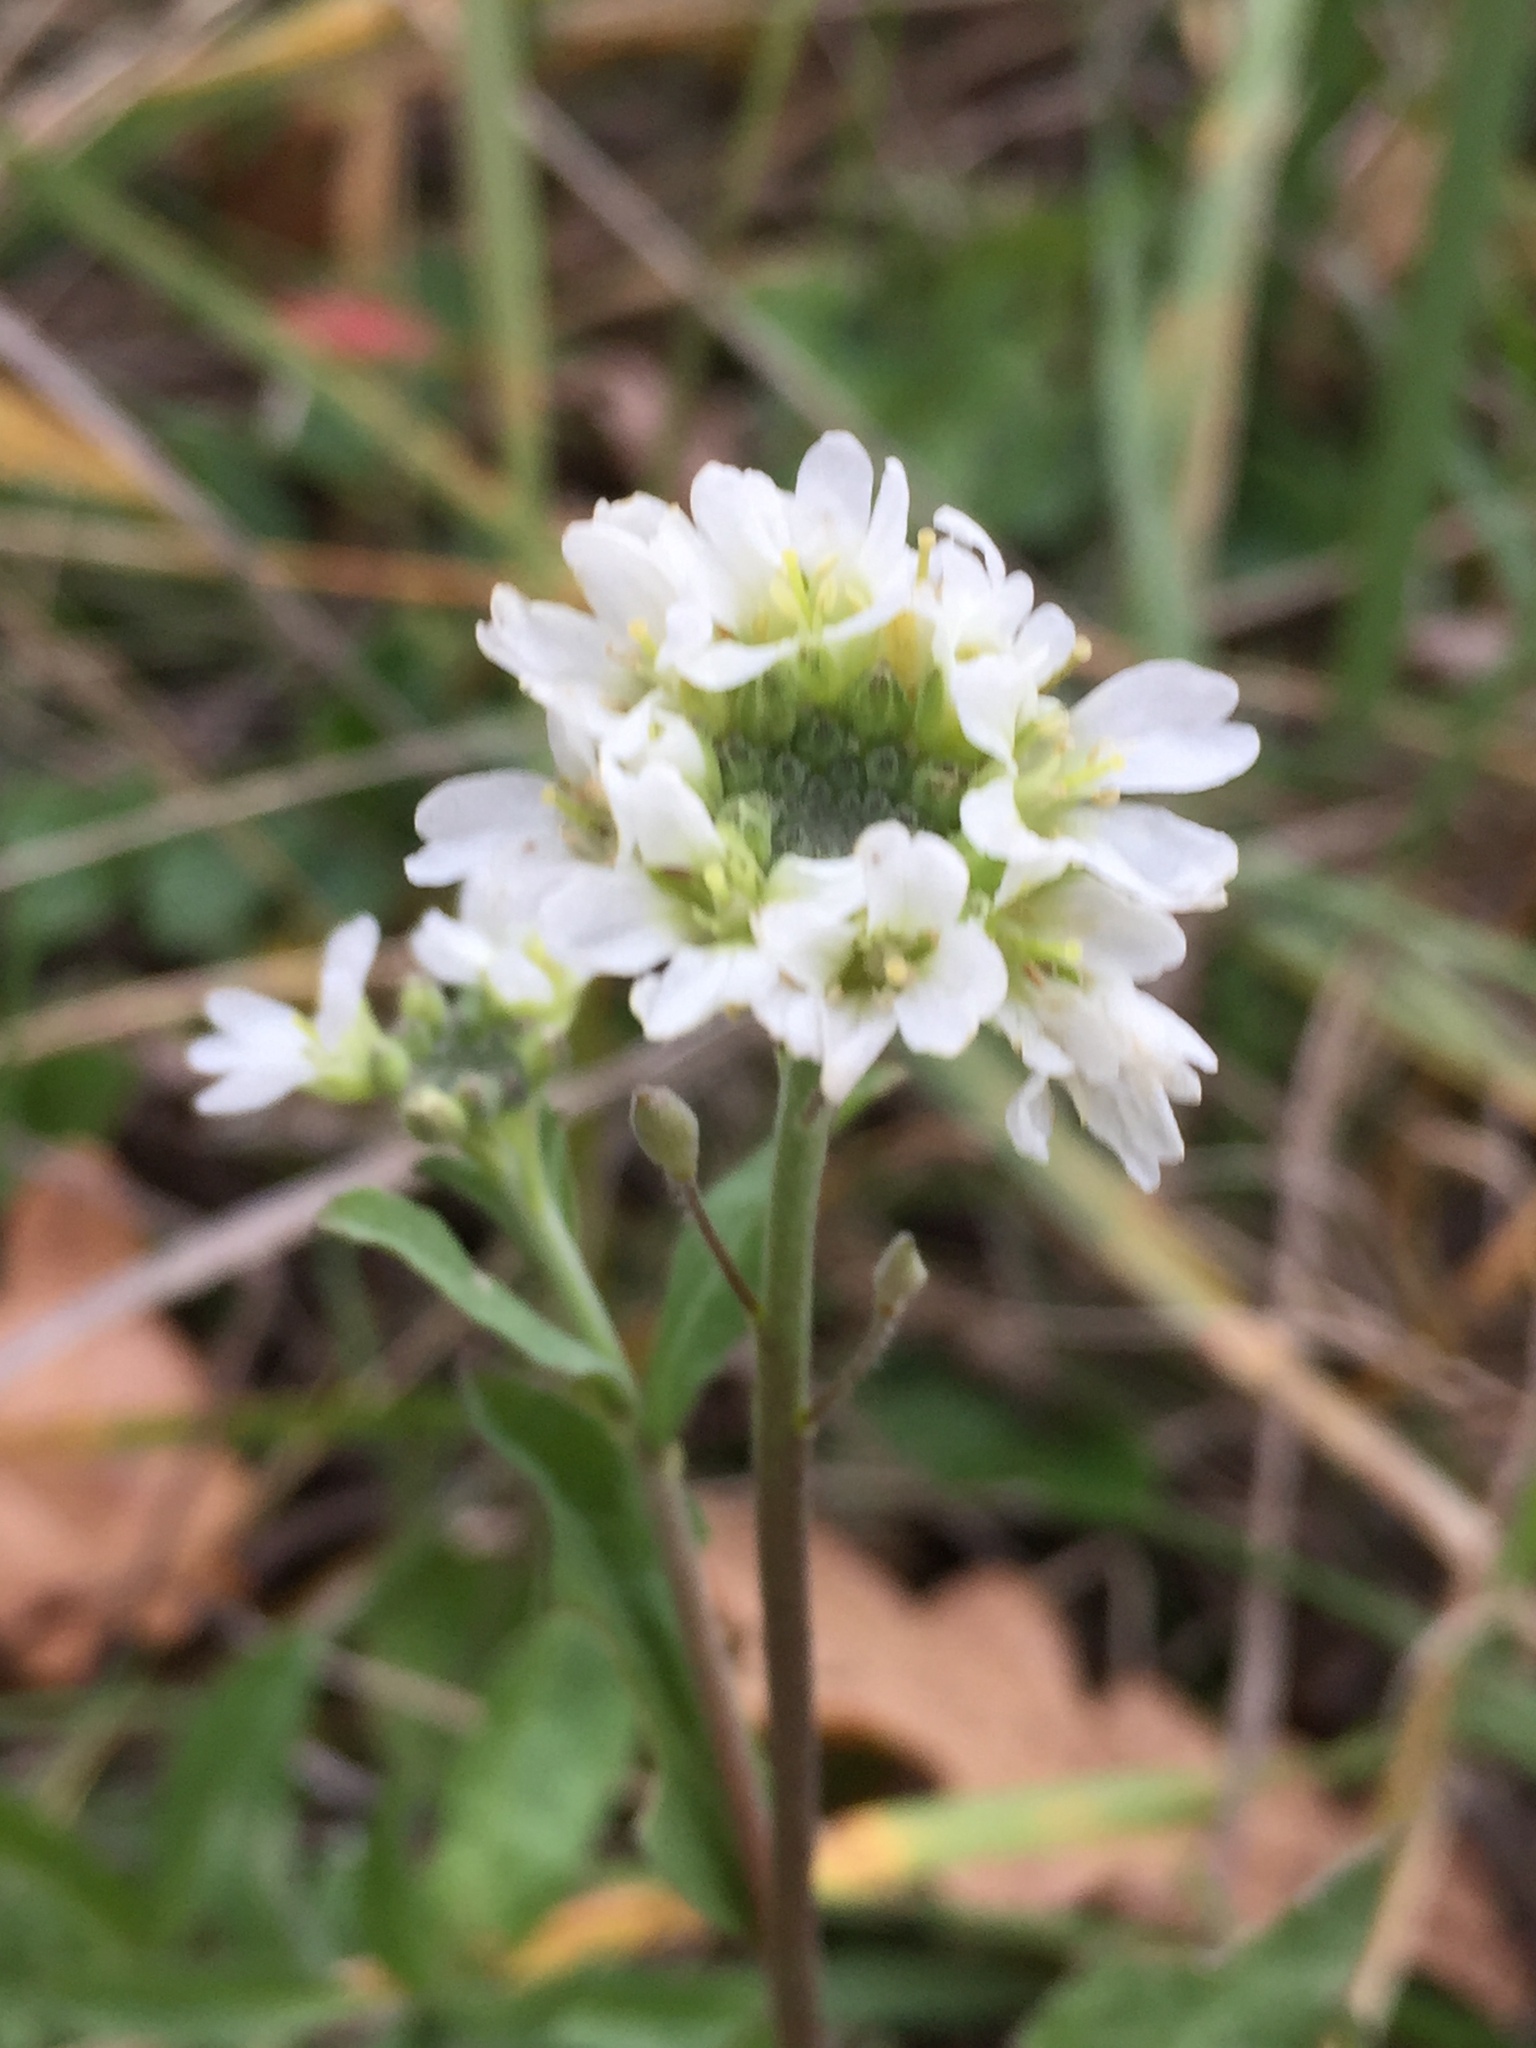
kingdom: Plantae
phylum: Tracheophyta
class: Magnoliopsida
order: Brassicales
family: Brassicaceae
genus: Berteroa
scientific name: Berteroa incana
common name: Hoary alison
